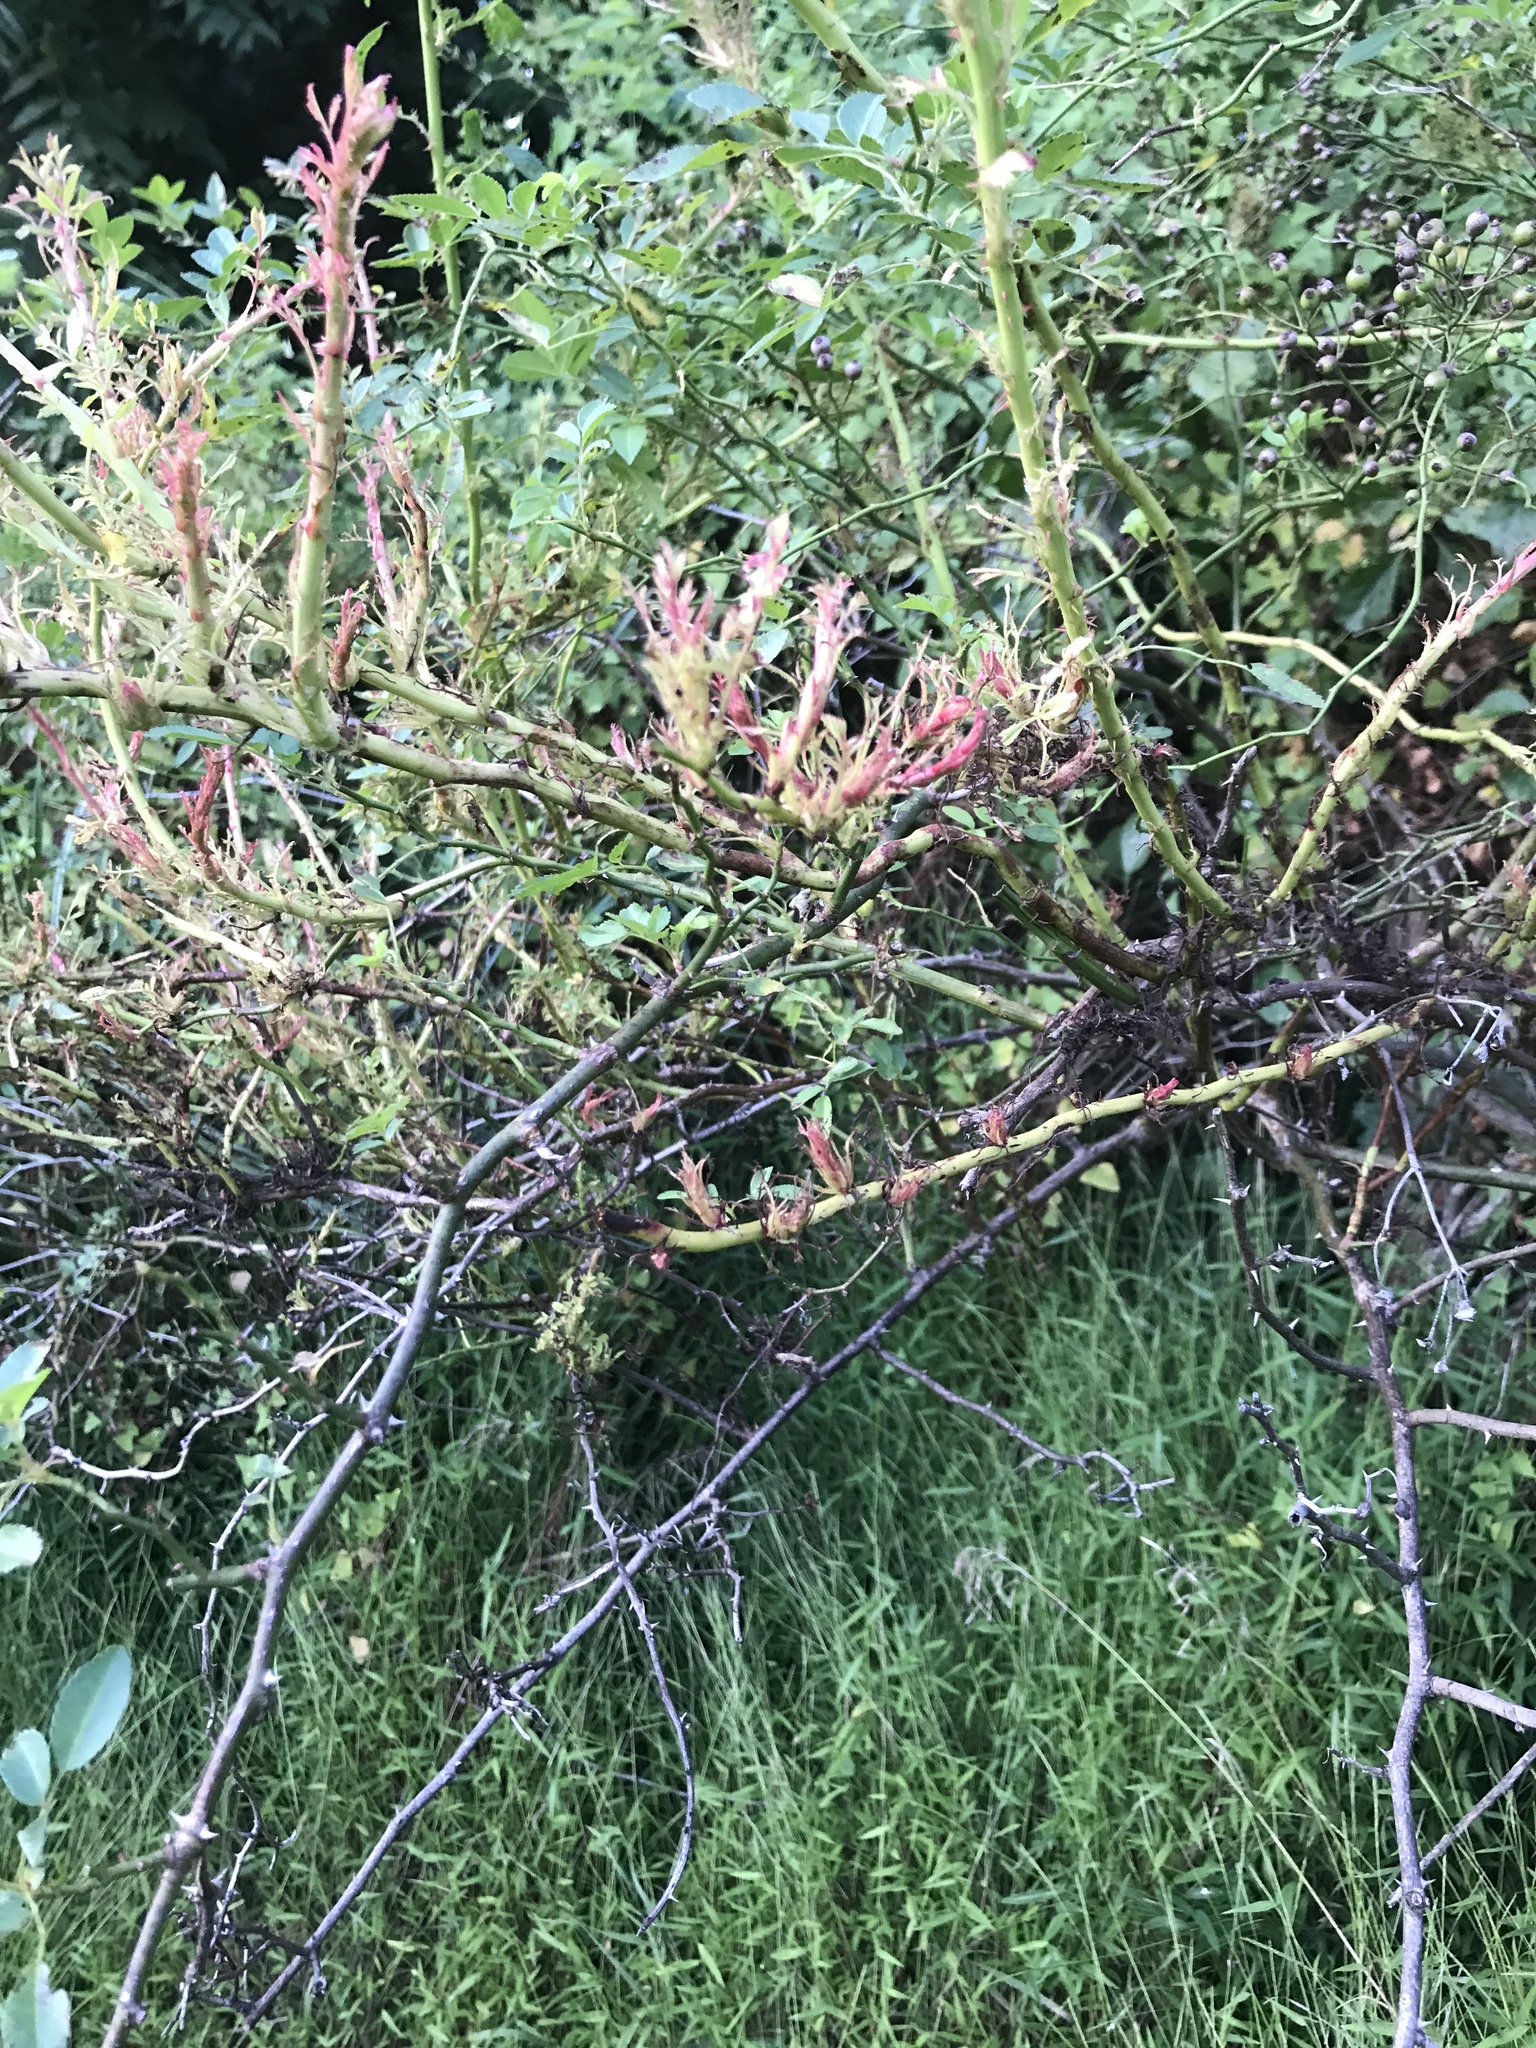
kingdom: Plantae
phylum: Tracheophyta
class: Magnoliopsida
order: Rosales
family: Rosaceae
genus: Rosa
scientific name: Rosa multiflora
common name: Multiflora rose
